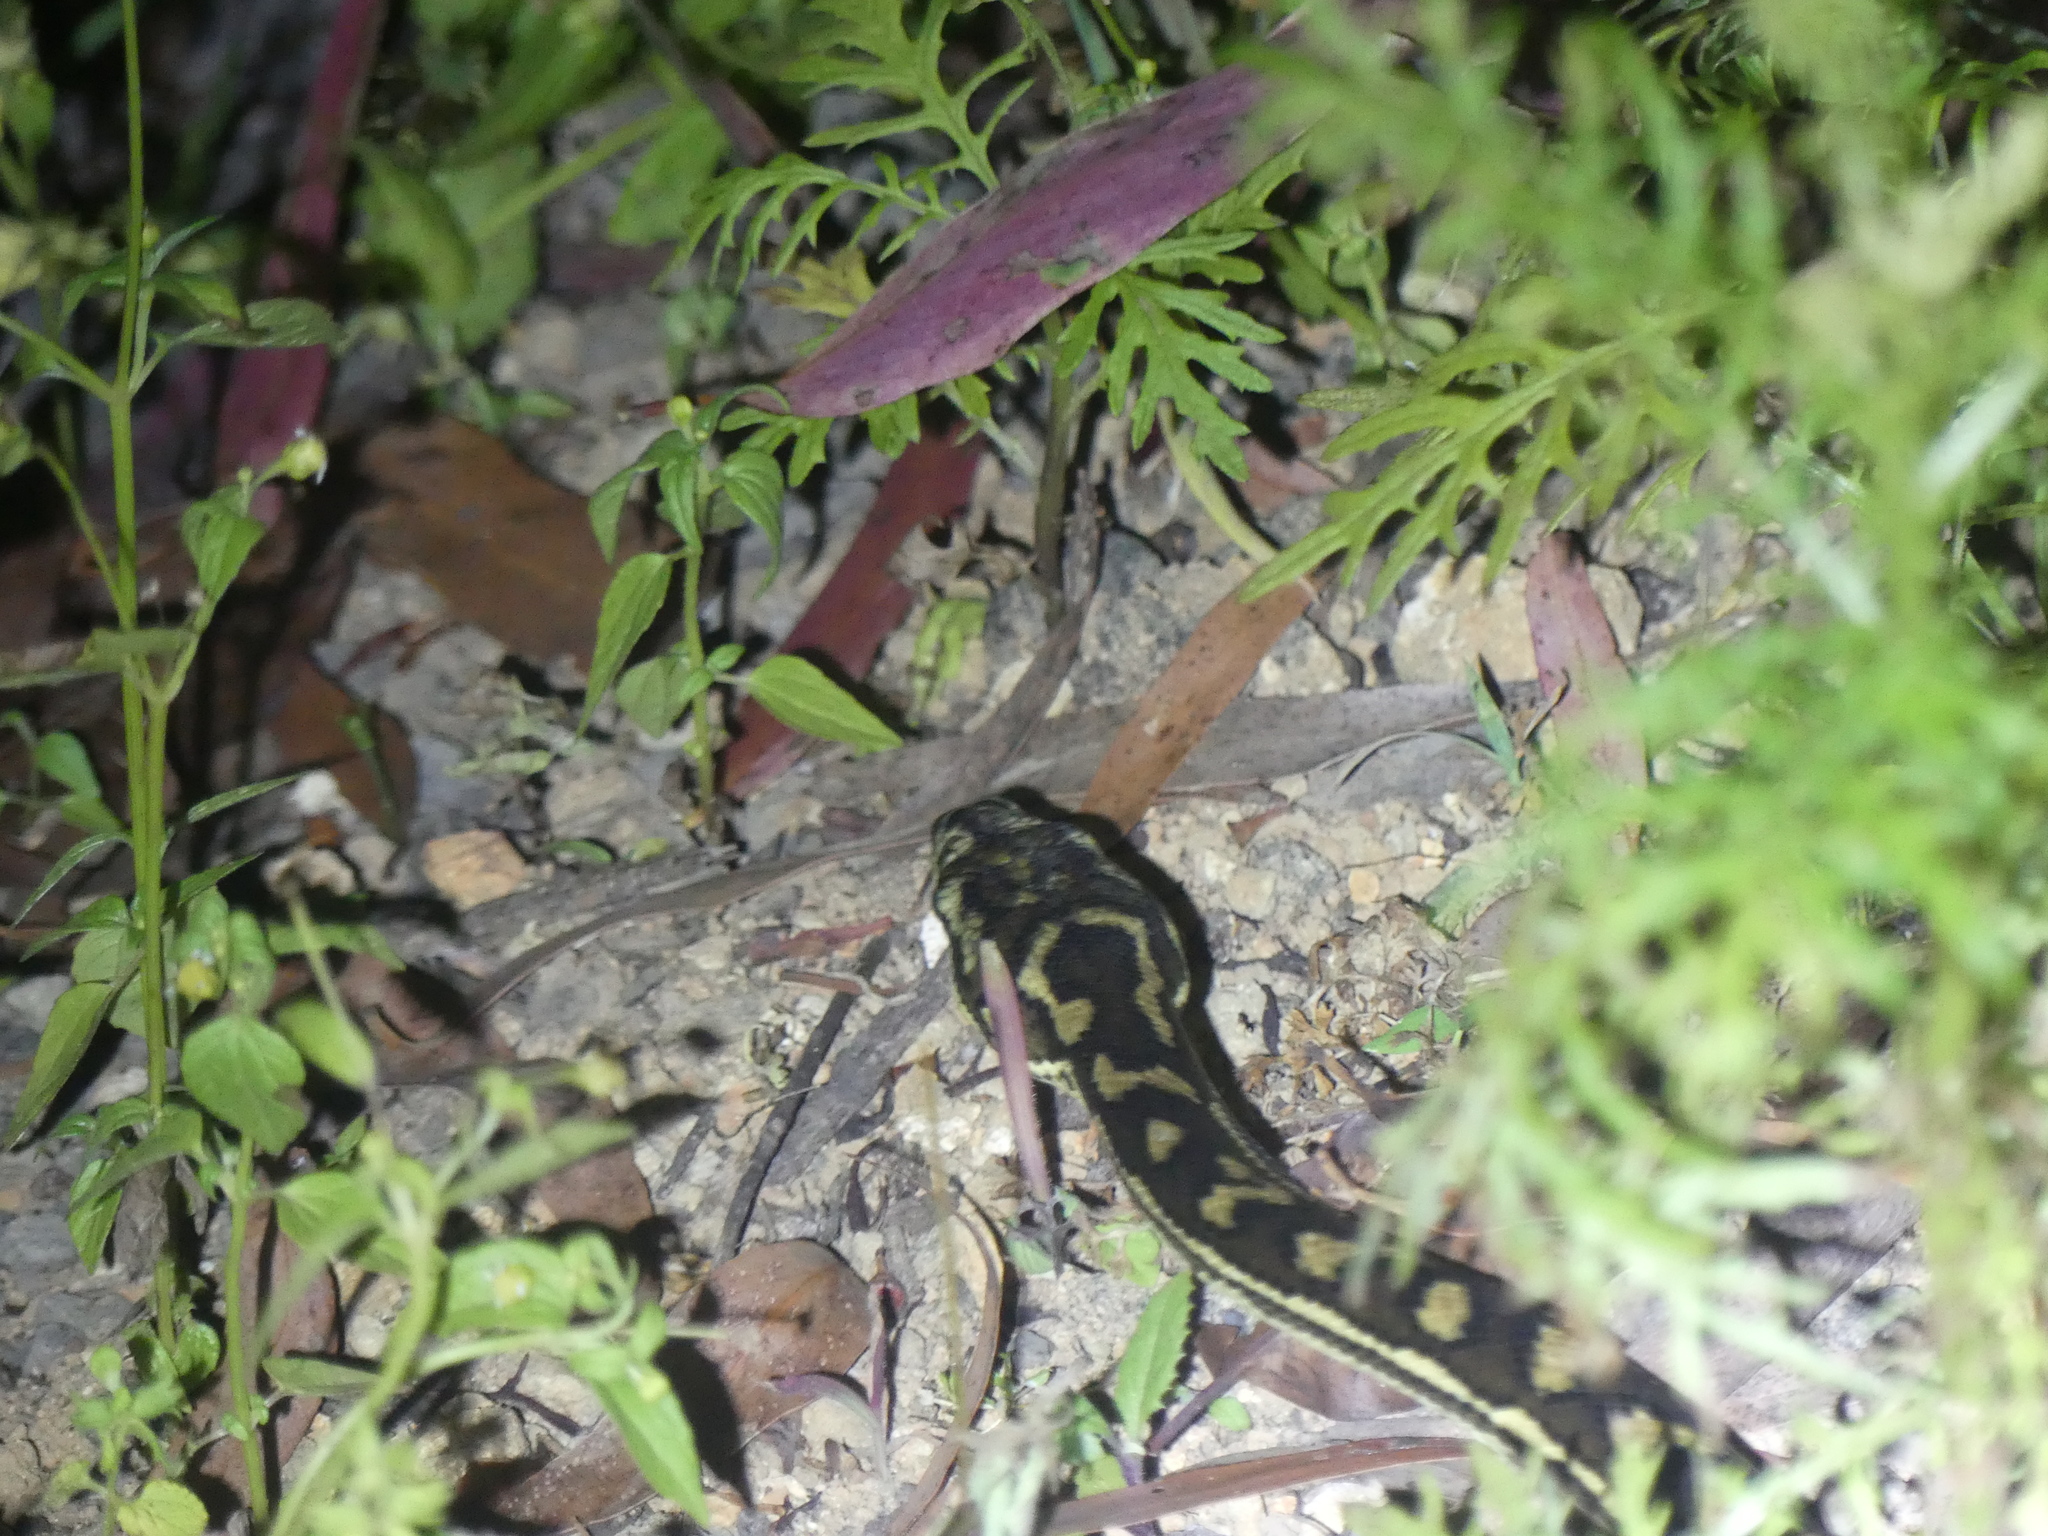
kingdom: Animalia
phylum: Chordata
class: Squamata
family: Pythonidae
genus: Morelia
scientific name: Morelia spilota
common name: Carpet python
